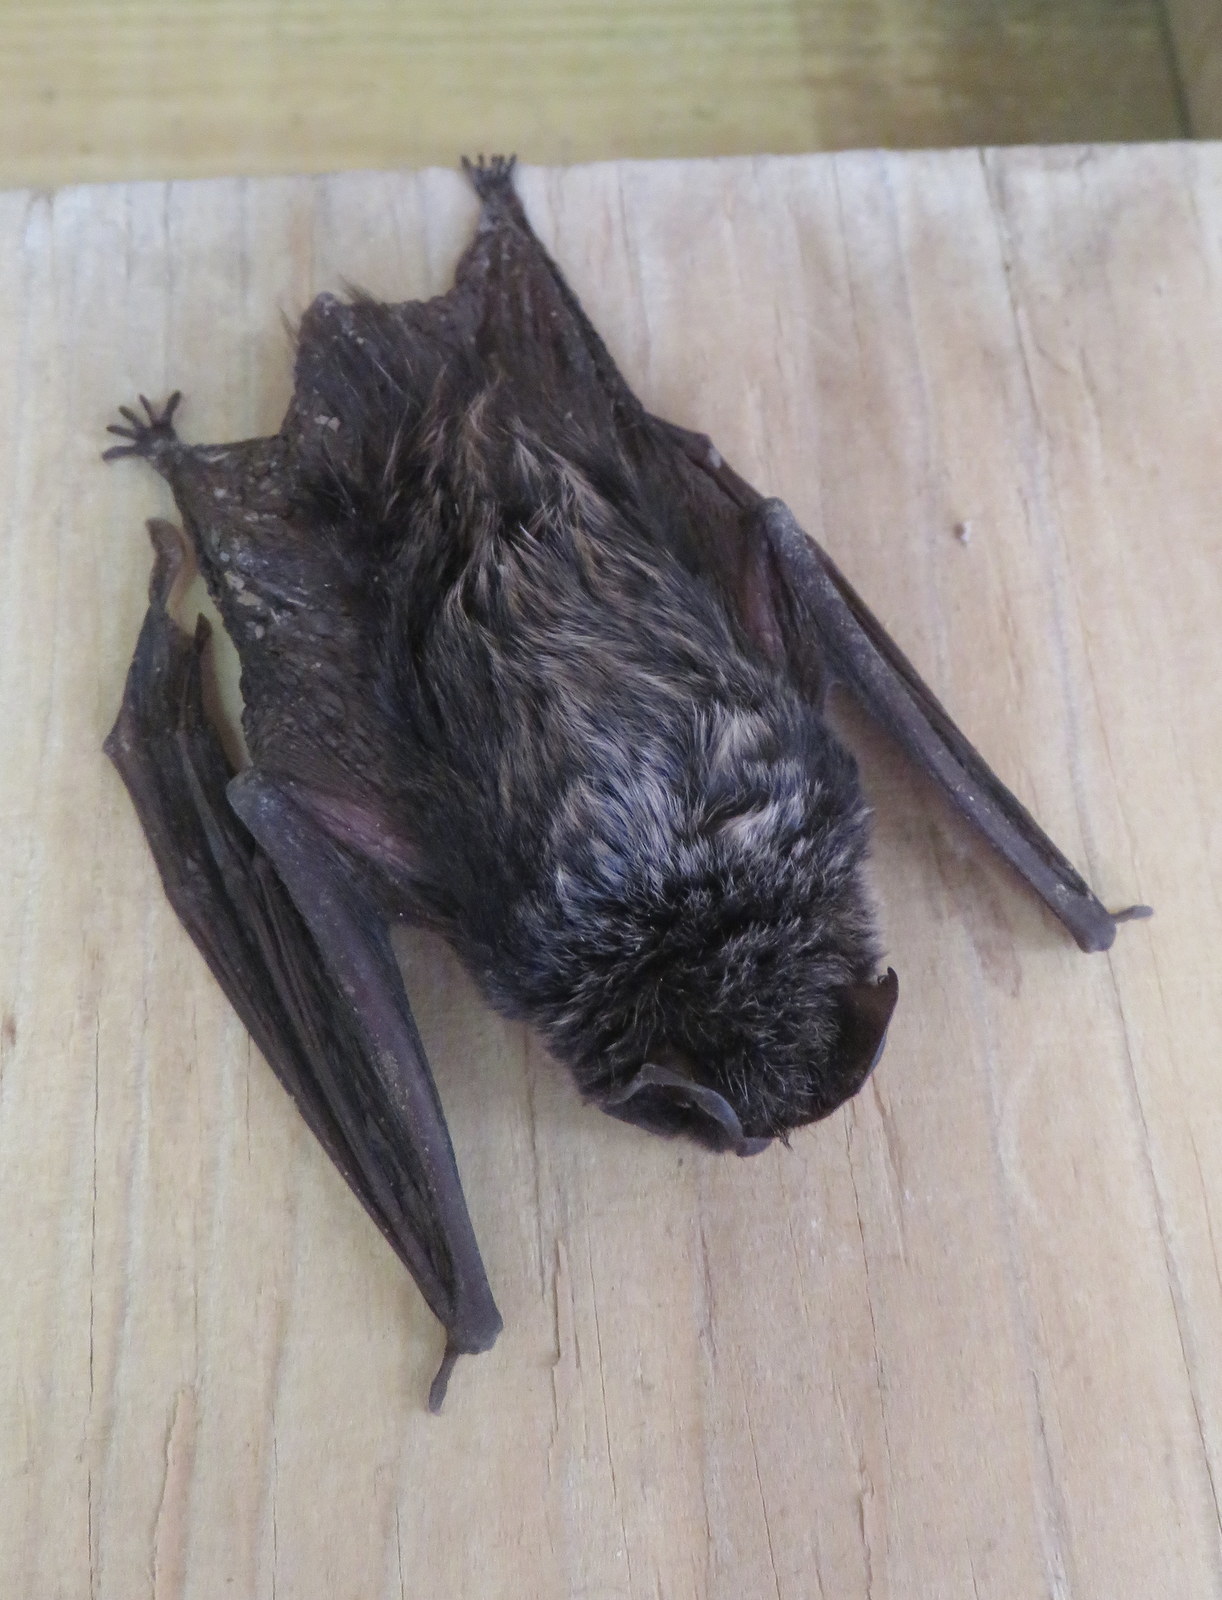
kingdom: Animalia
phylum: Chordata
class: Mammalia
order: Chiroptera
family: Vespertilionidae
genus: Barbastella
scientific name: Barbastella barbastellus
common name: Western barbastelle
